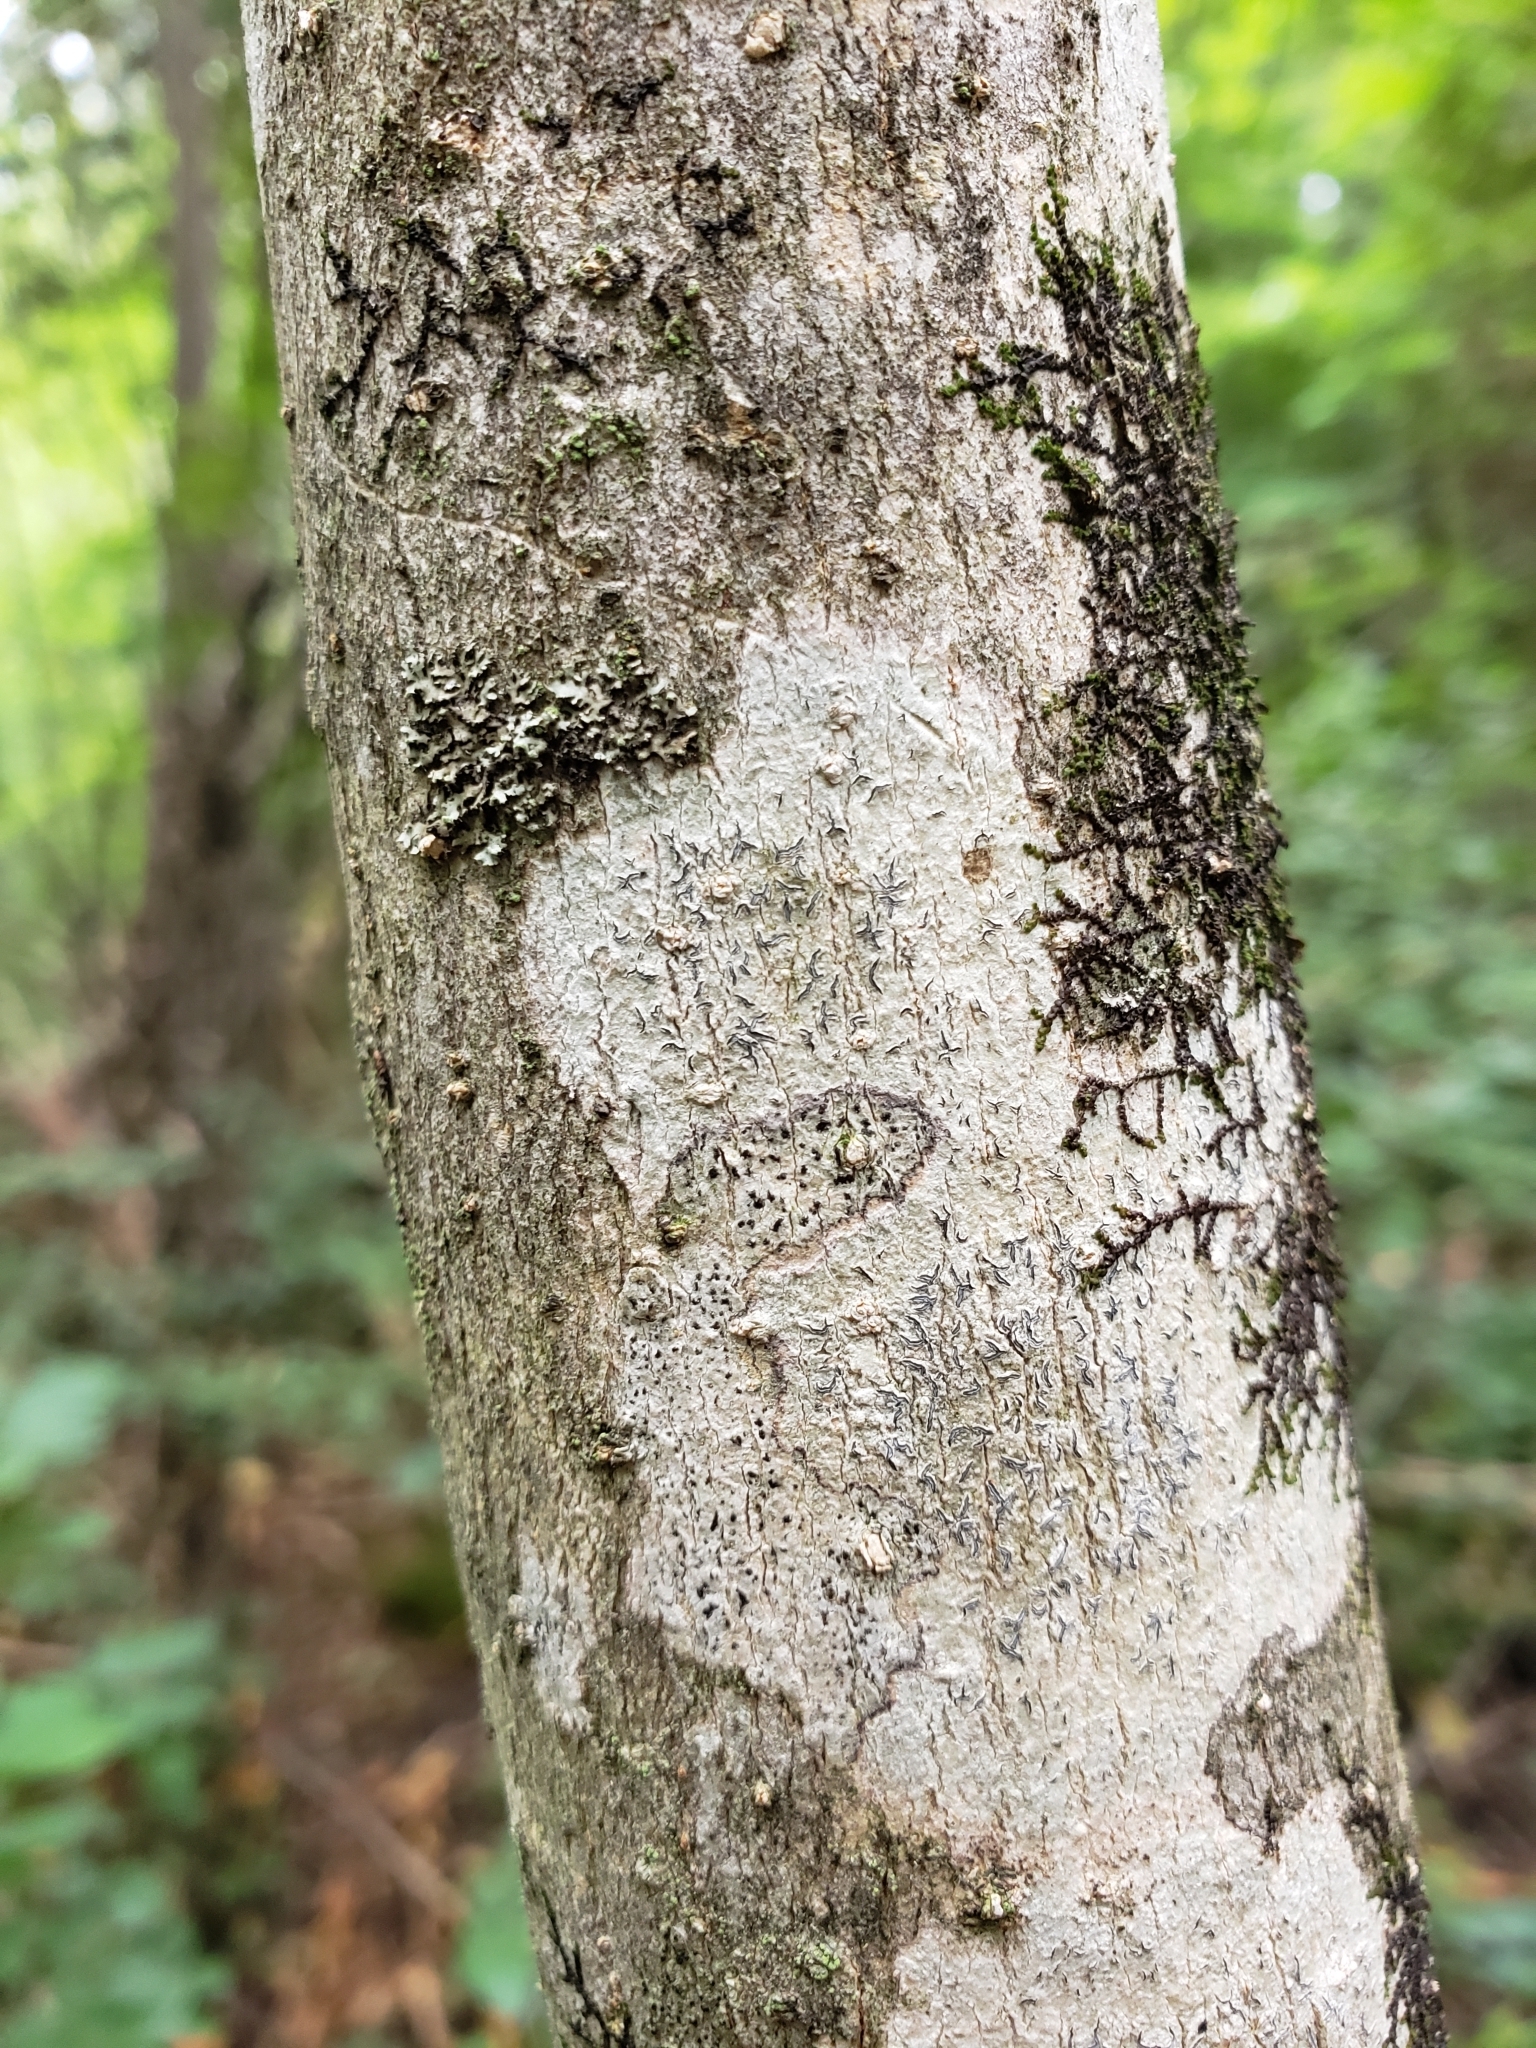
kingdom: Fungi
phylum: Ascomycota
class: Lecanoromycetes
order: Ostropales
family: Graphidaceae
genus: Graphis
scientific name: Graphis scripta
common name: Script lichen
